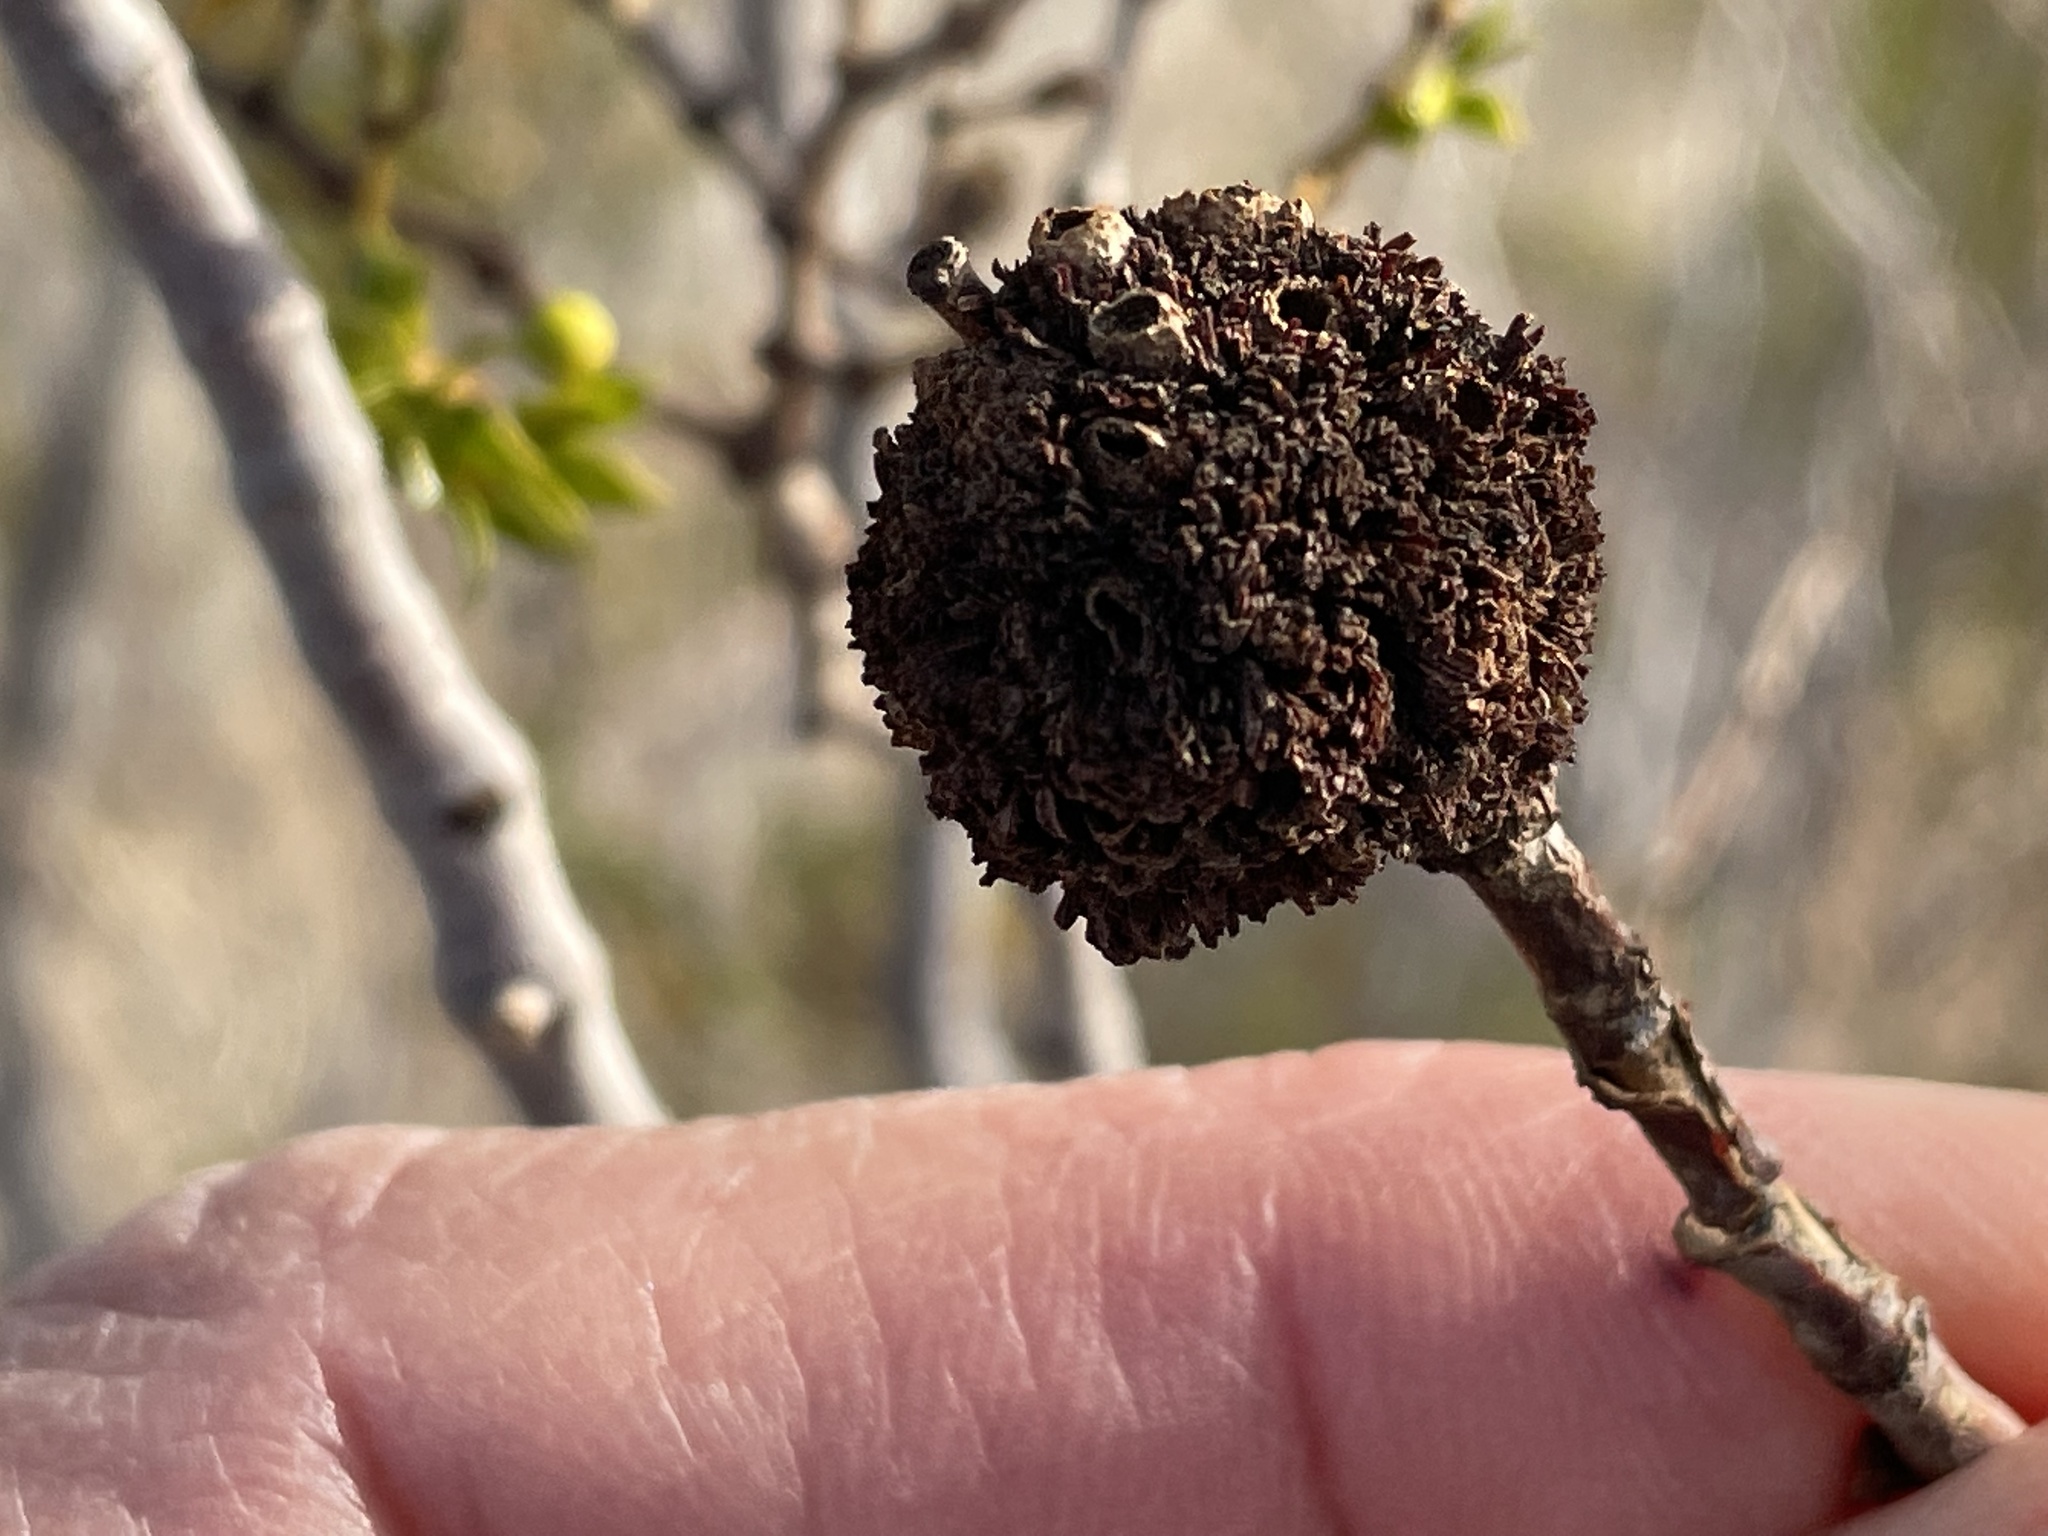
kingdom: Animalia
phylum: Arthropoda
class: Insecta
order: Diptera
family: Cecidomyiidae
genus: Asphondylia
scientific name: Asphondylia auripila
